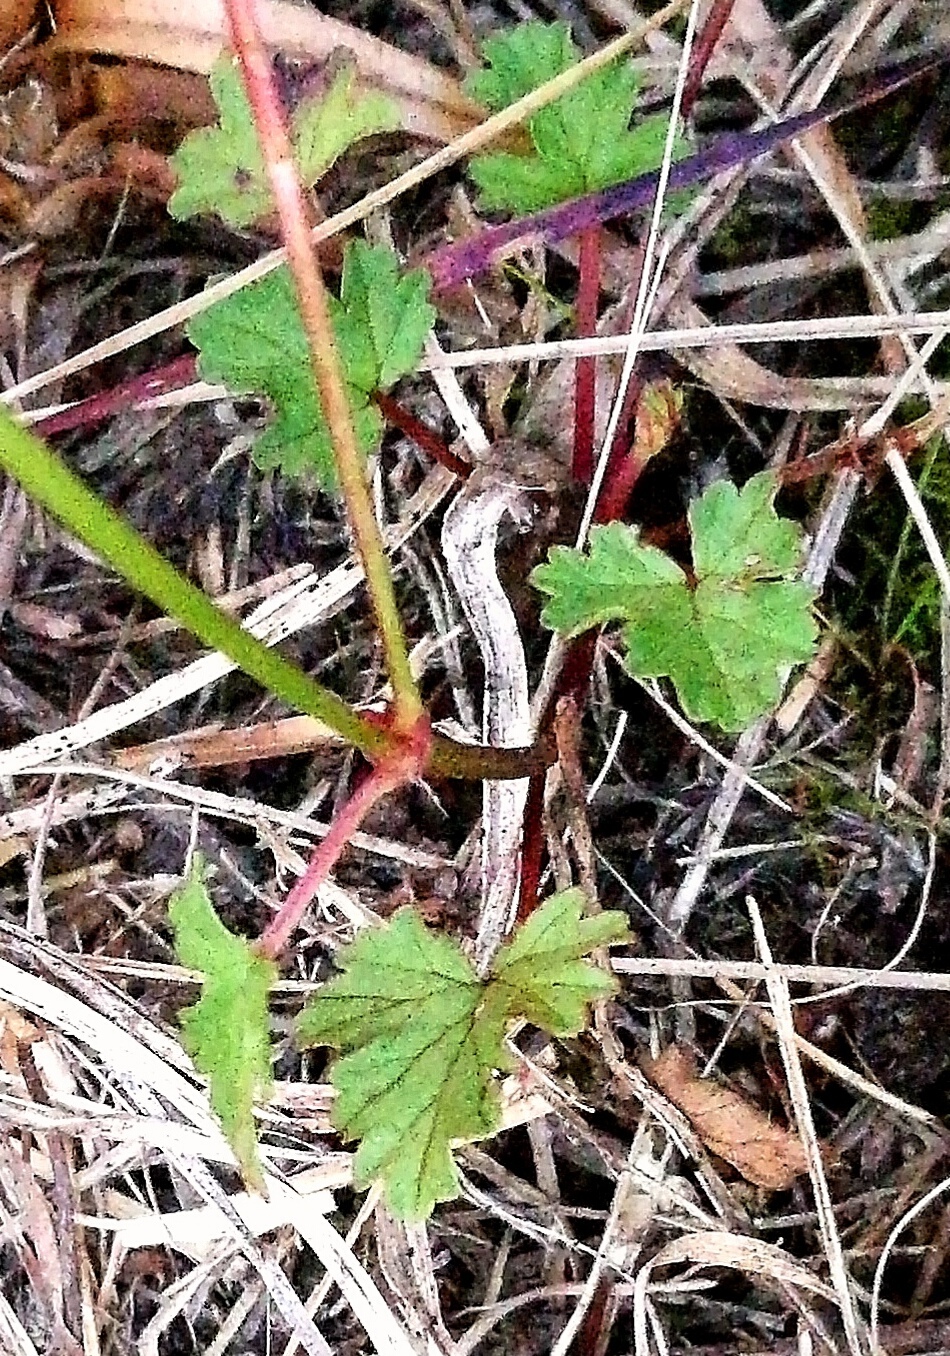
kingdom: Plantae
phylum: Tracheophyta
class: Magnoliopsida
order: Geraniales
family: Geraniaceae
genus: Pelargonium
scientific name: Pelargonium grossularioides
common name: Gooseberry geranium
